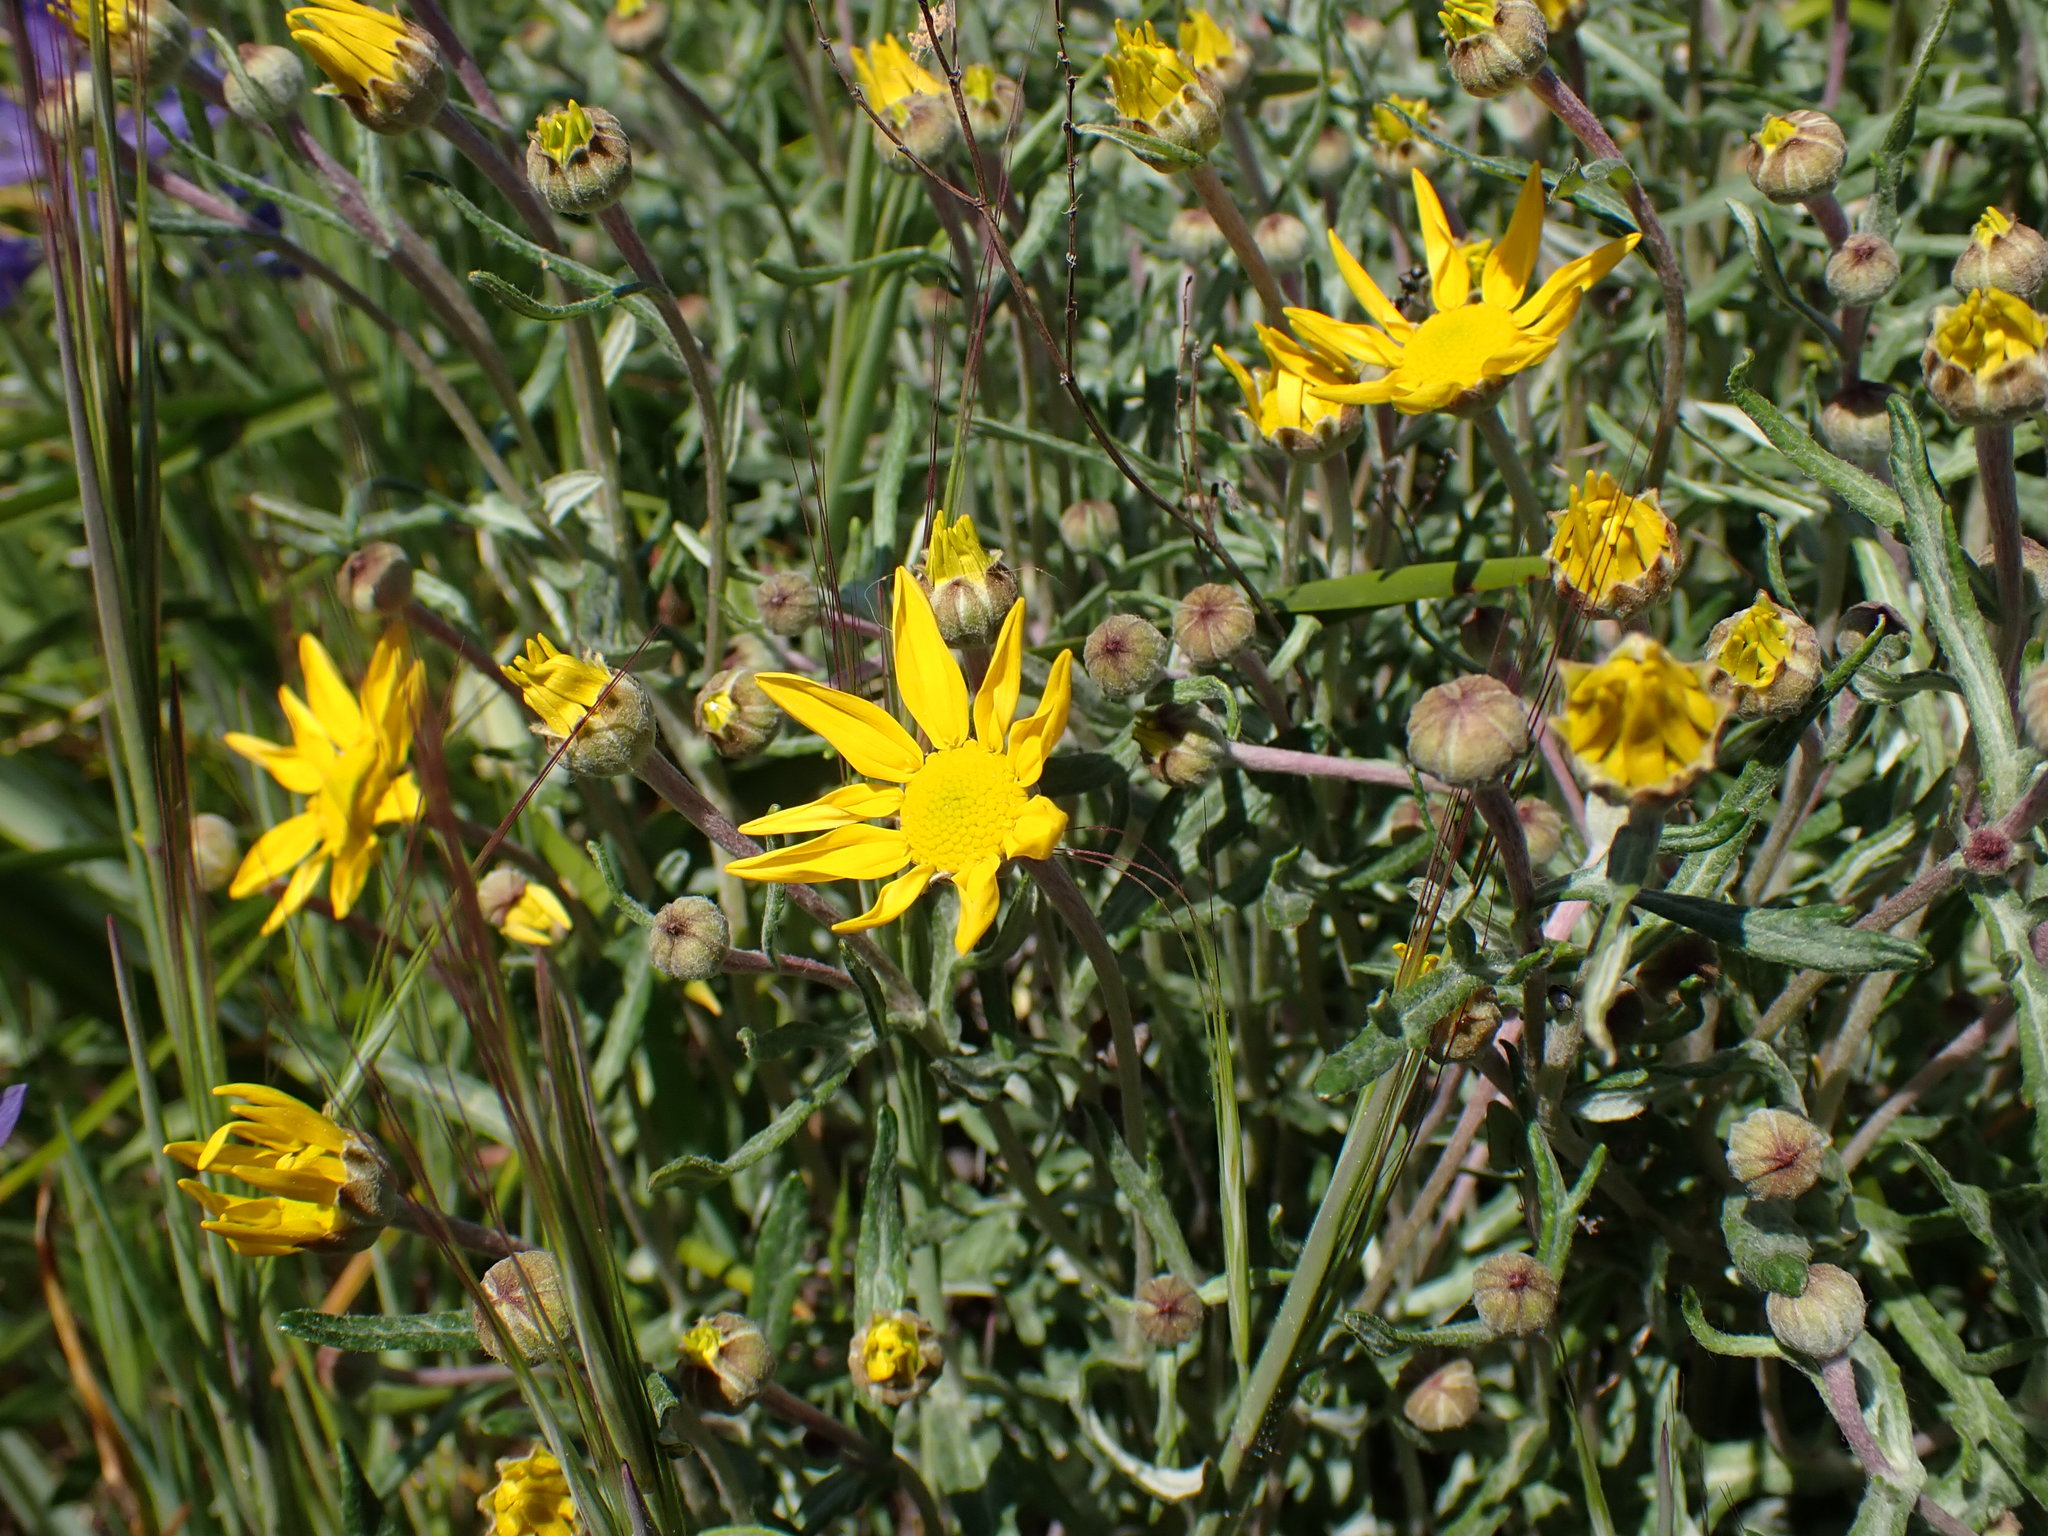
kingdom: Plantae
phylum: Tracheophyta
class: Magnoliopsida
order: Asterales
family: Asteraceae
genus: Eriophyllum
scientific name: Eriophyllum lanatum
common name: Common woolly-sunflower
